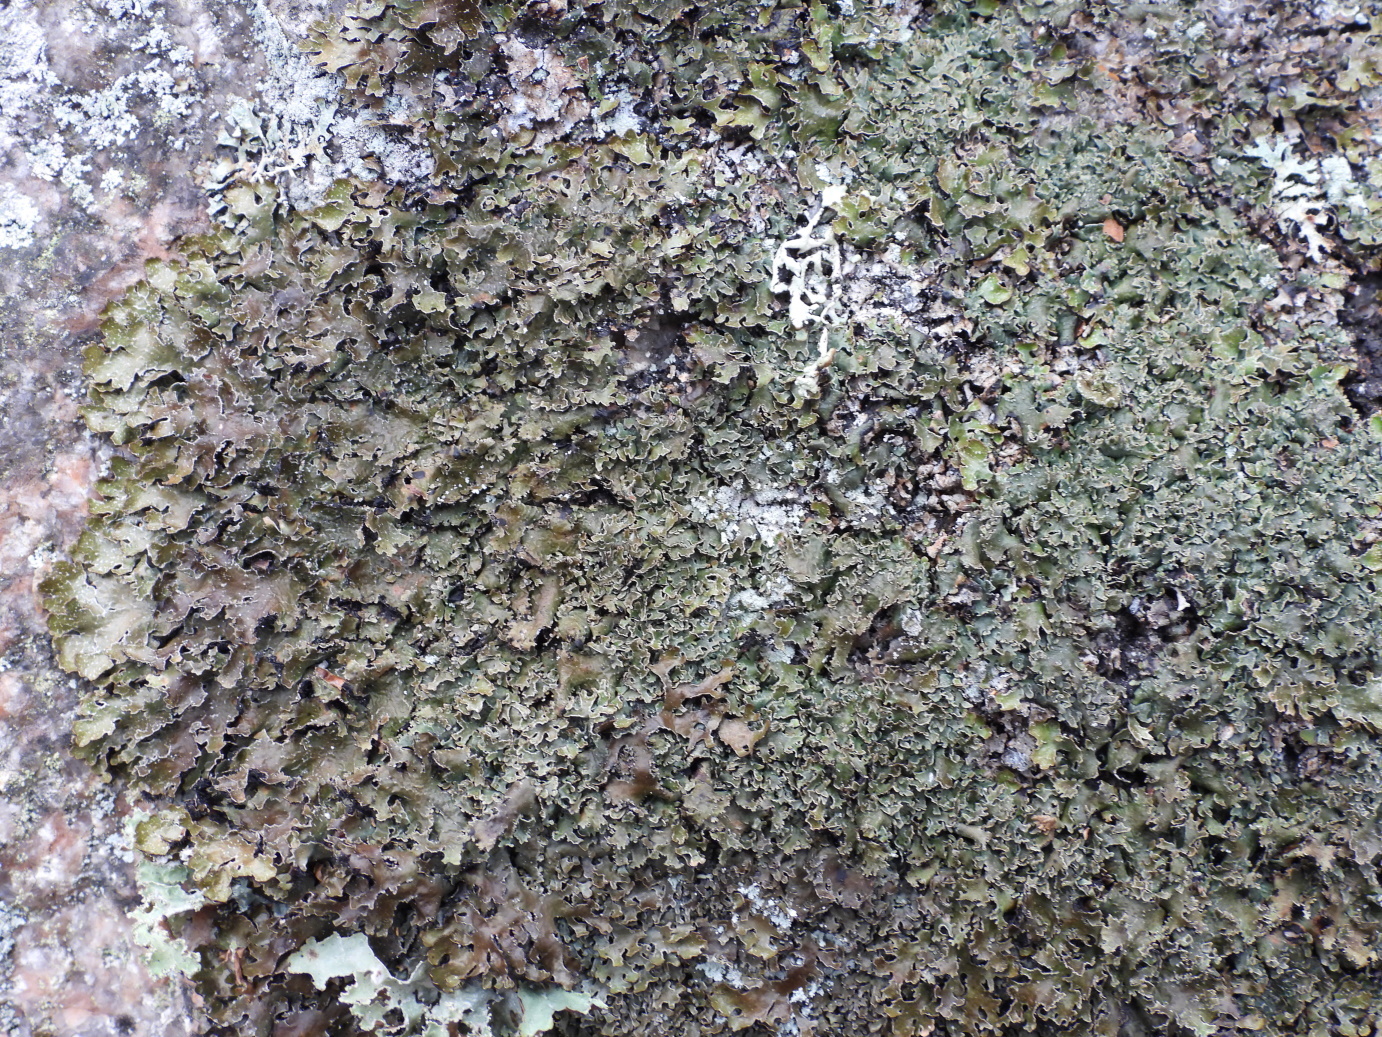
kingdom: Fungi
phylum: Ascomycota
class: Lecanoromycetes
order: Lecanorales
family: Parmeliaceae
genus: Parmelia
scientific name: Parmelia omphalodes
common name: Smoky crottle
